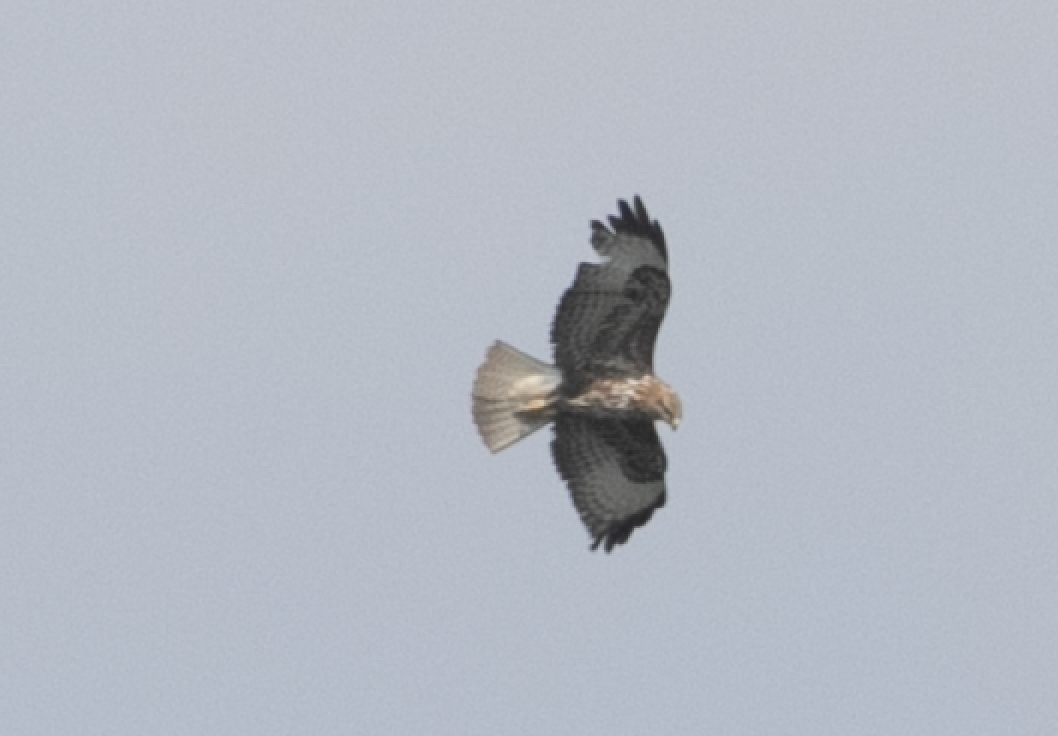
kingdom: Animalia
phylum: Chordata
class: Aves
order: Accipitriformes
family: Accipitridae
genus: Buteo
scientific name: Buteo buteo
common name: Common buzzard
